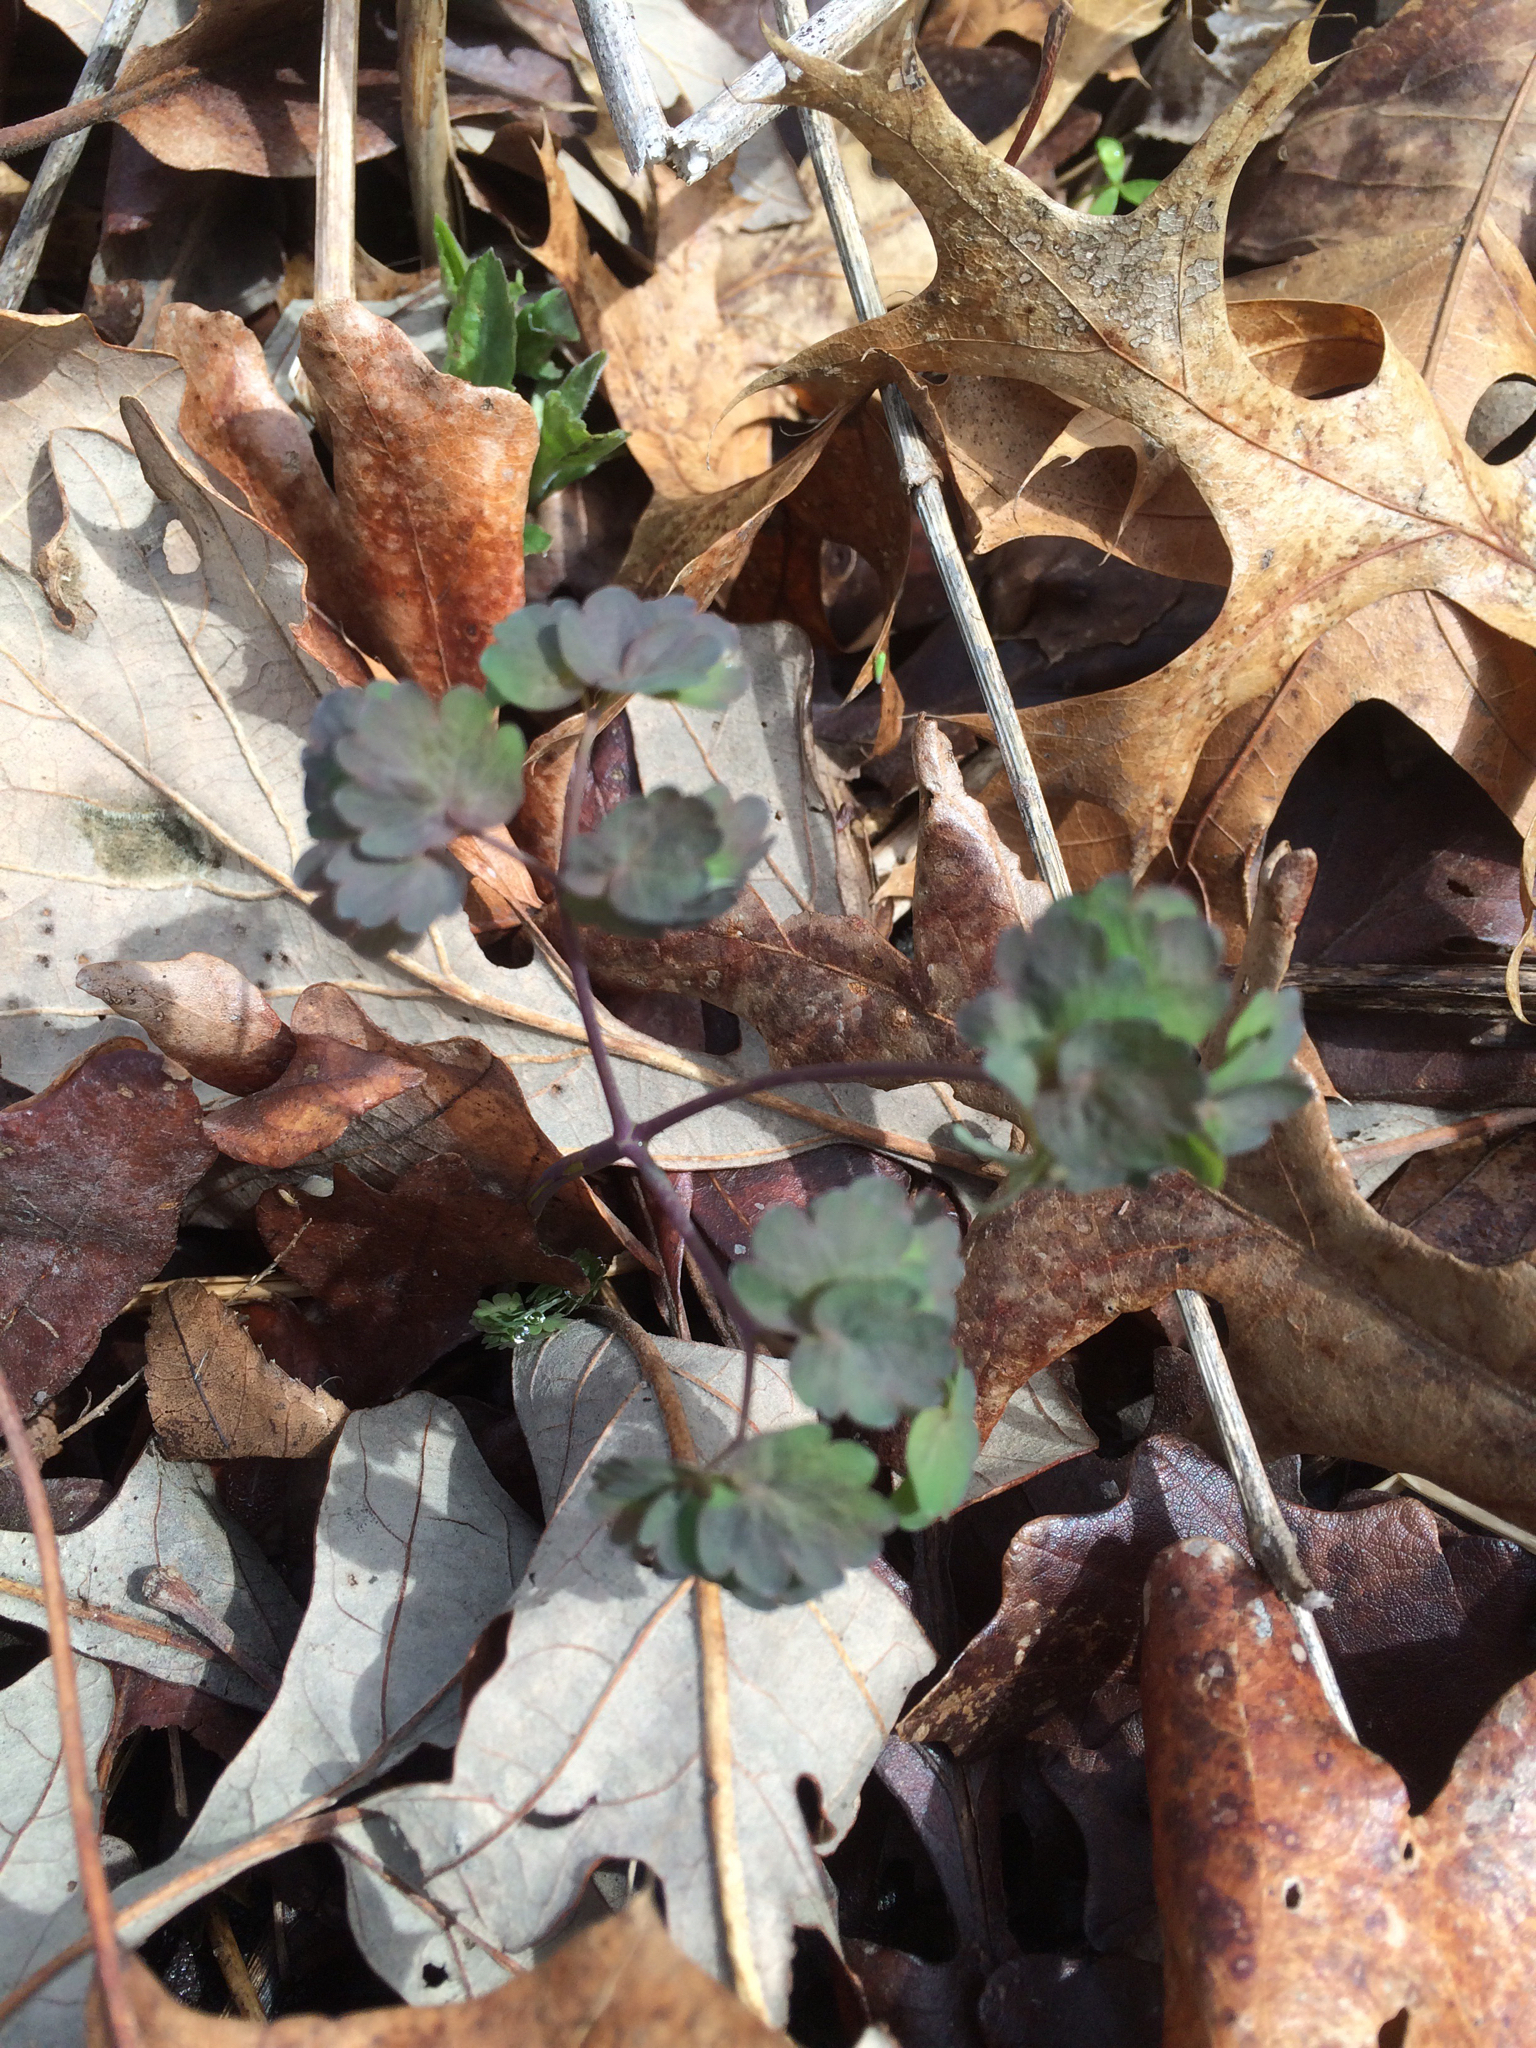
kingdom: Plantae
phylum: Tracheophyta
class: Magnoliopsida
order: Ranunculales
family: Ranunculaceae
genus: Thalictrum
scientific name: Thalictrum dioicum
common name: Early meadow-rue
